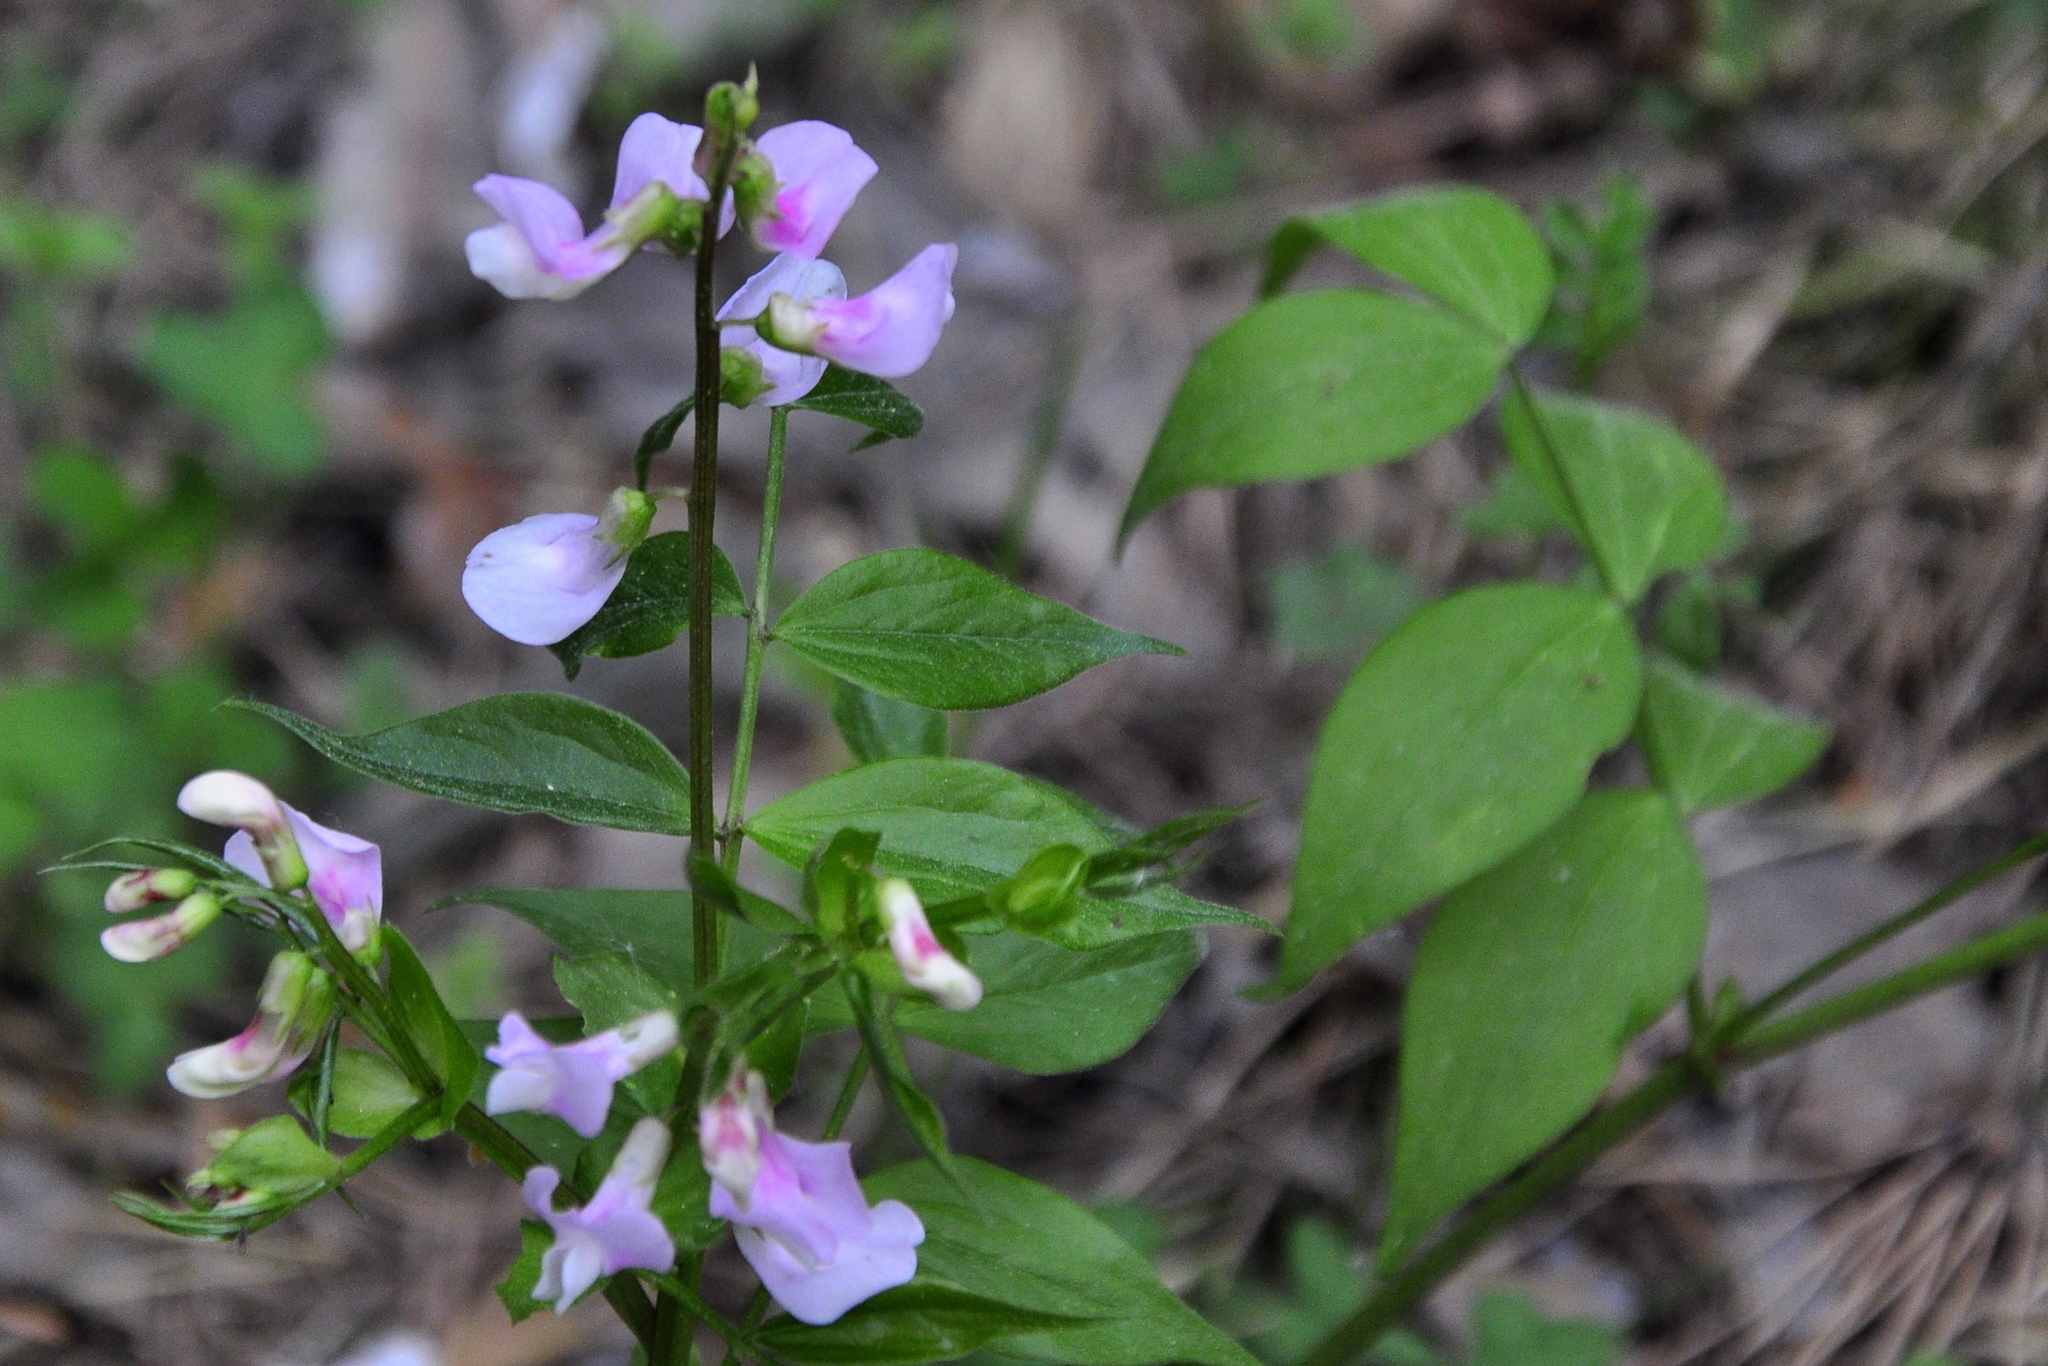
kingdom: Plantae
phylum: Tracheophyta
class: Magnoliopsida
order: Fabales
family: Fabaceae
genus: Lathyrus
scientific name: Lathyrus vernus
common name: Spring pea
